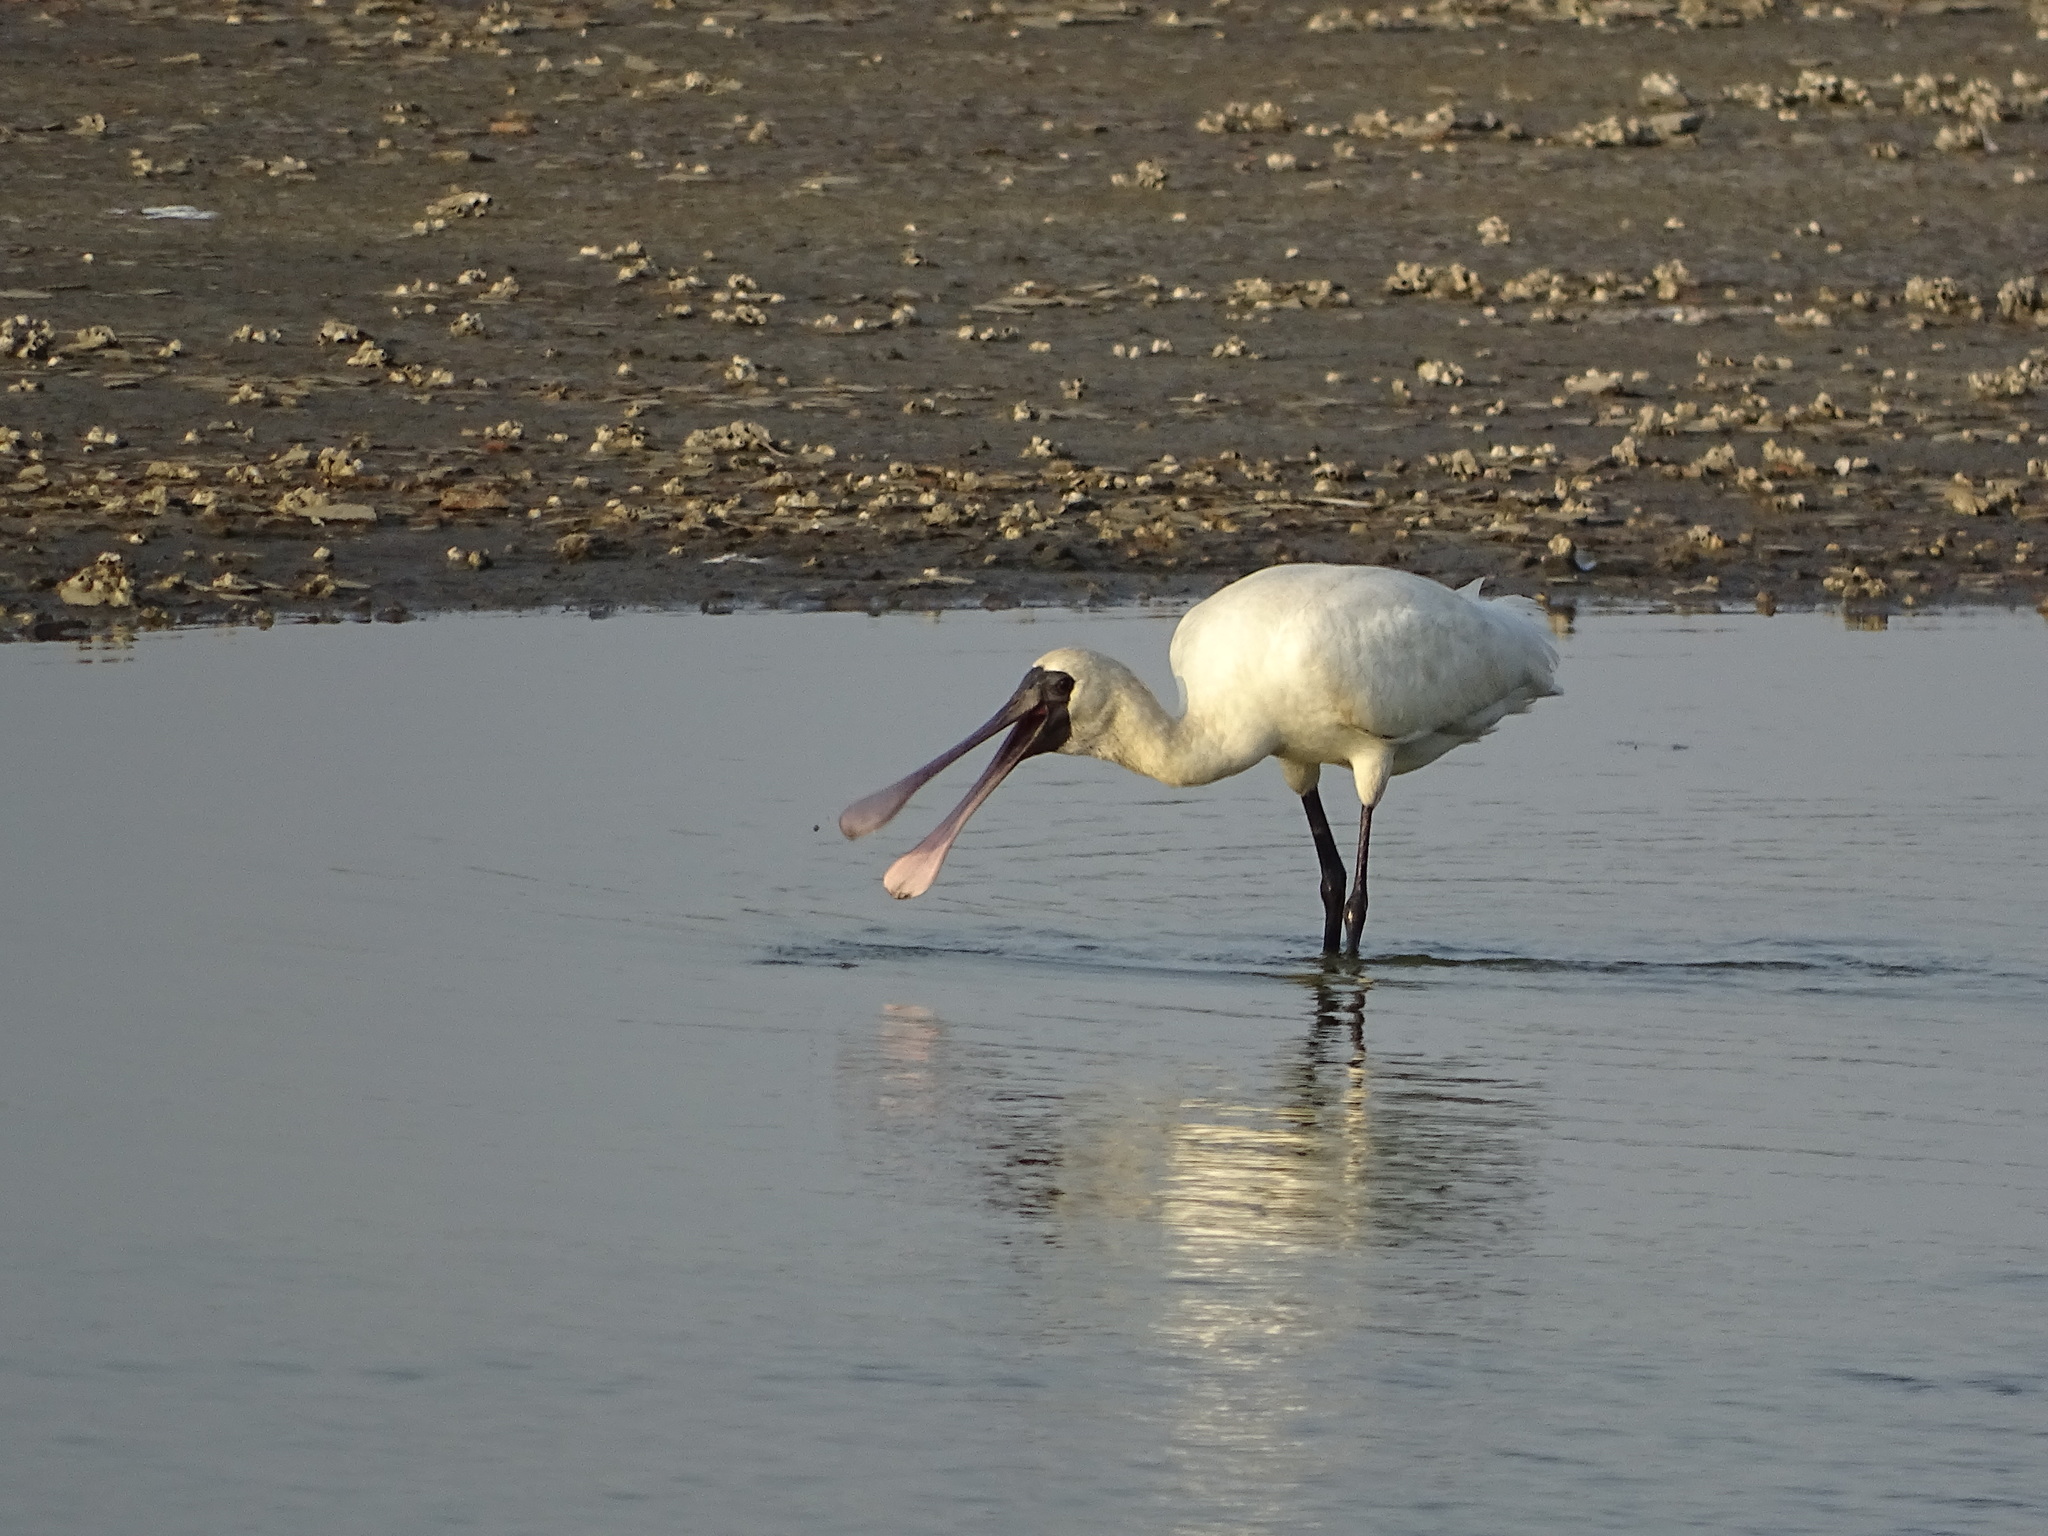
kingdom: Animalia
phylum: Chordata
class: Aves
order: Pelecaniformes
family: Threskiornithidae
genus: Platalea
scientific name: Platalea minor
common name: Black-faced spoonbill
